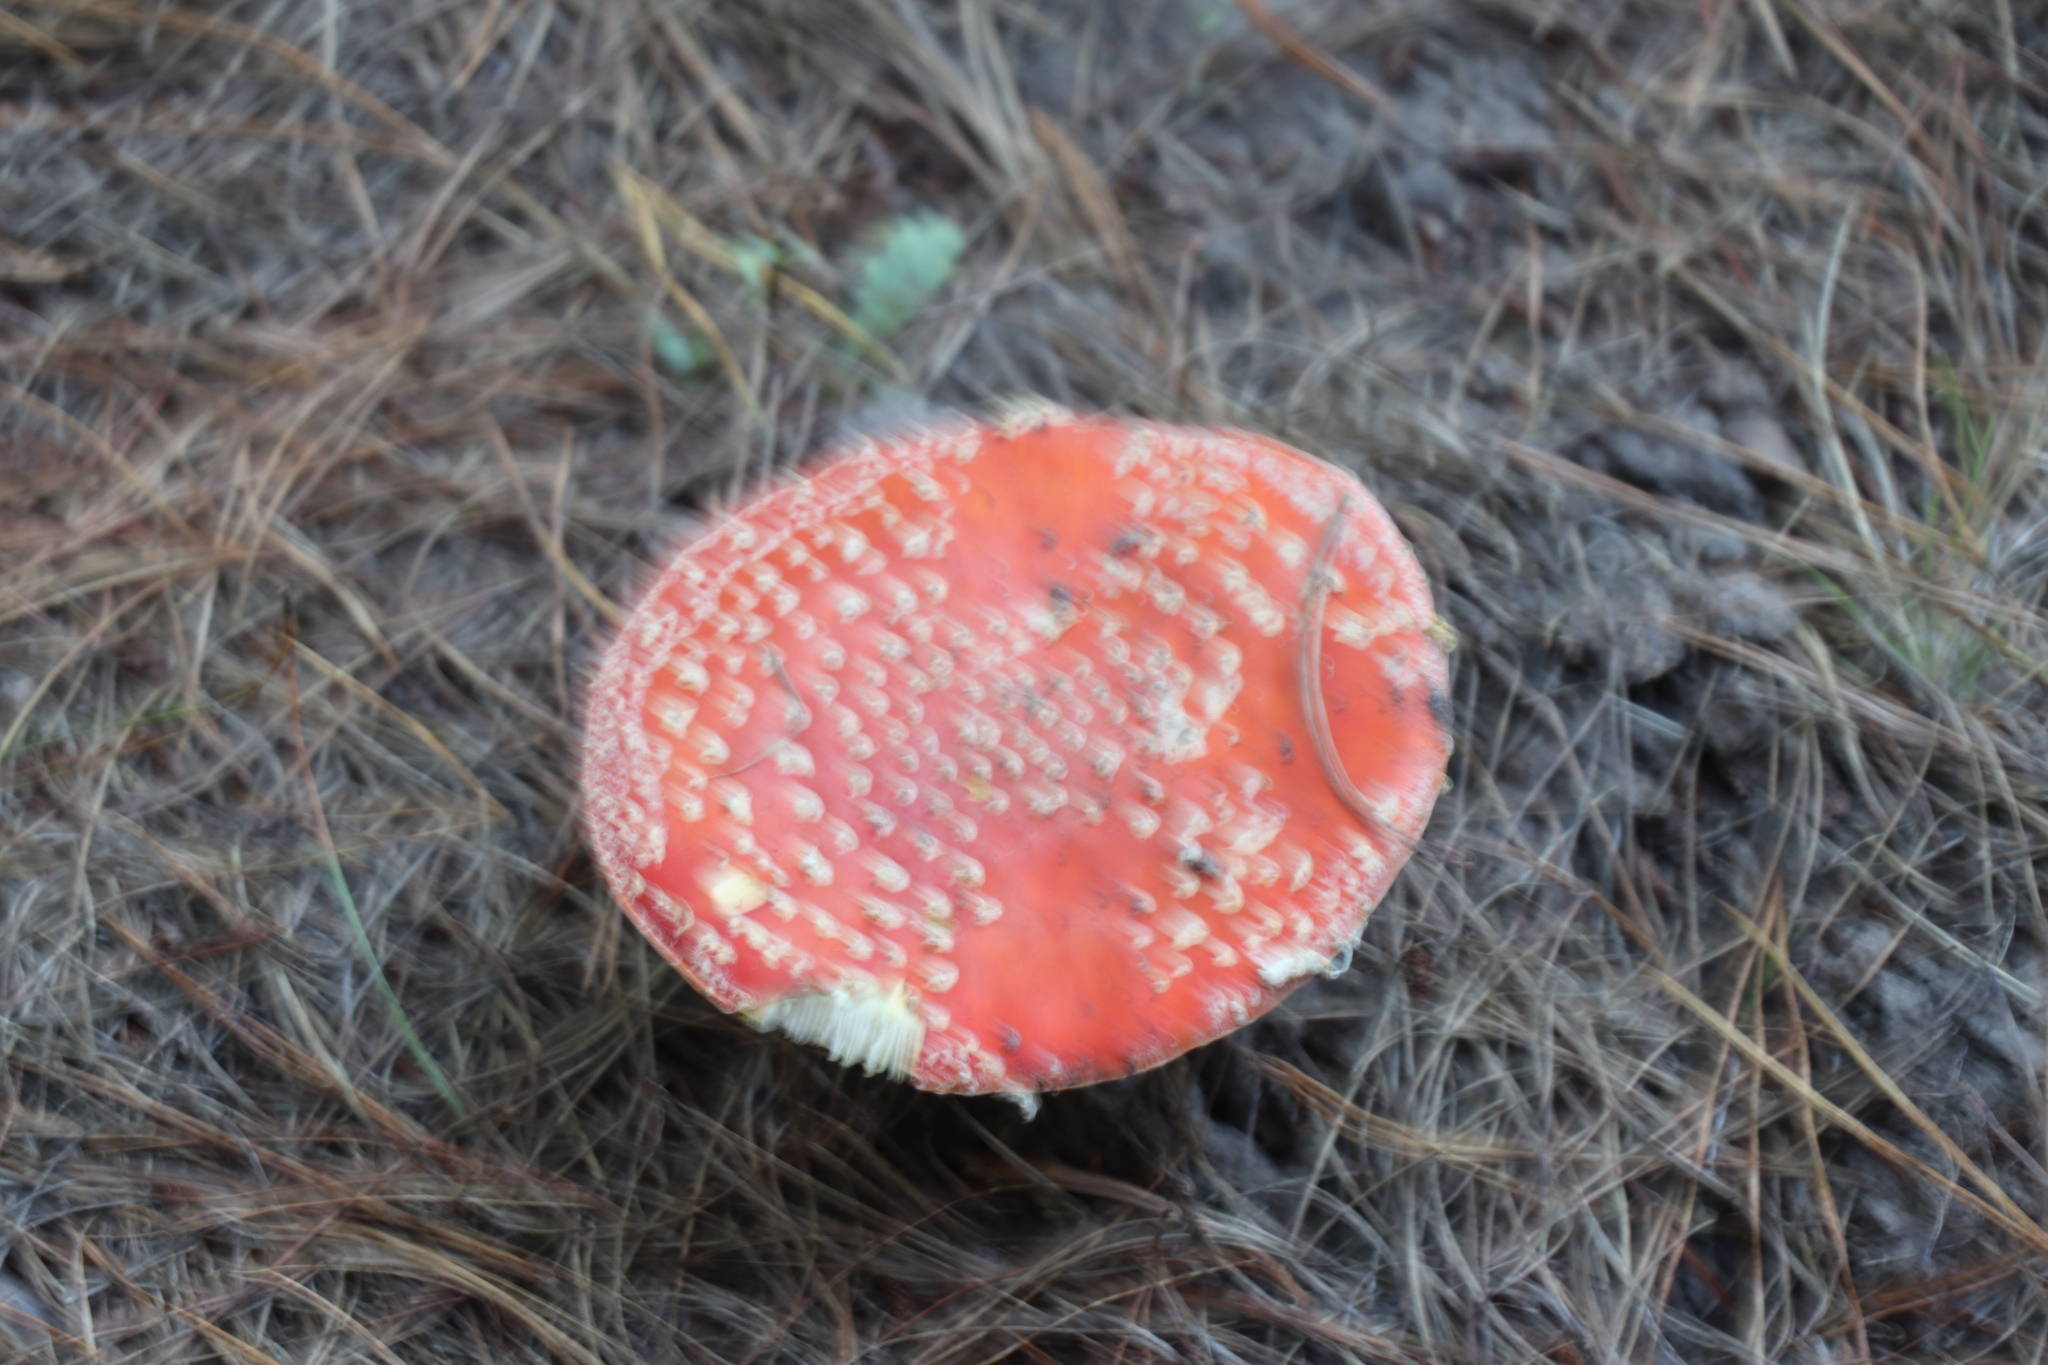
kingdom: Fungi
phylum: Basidiomycota
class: Agaricomycetes
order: Agaricales
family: Amanitaceae
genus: Amanita
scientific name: Amanita muscaria
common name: Fly agaric
